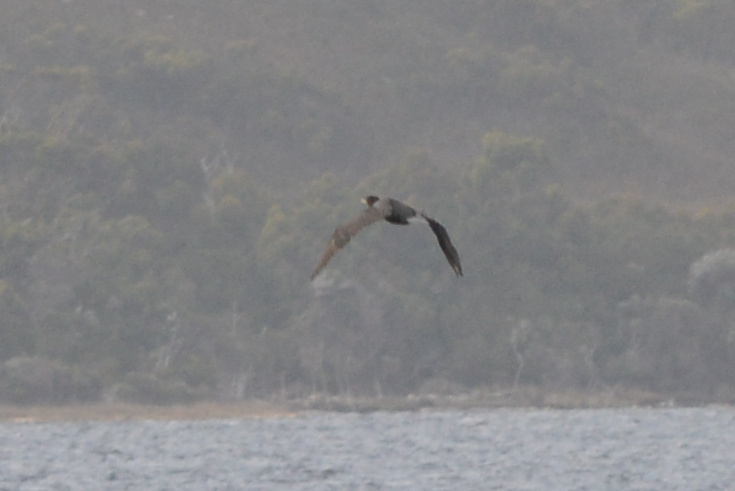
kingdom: Animalia
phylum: Chordata
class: Aves
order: Suliformes
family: Phalacrocoracidae
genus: Phalacrocorax
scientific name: Phalacrocorax carbo
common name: Great cormorant
